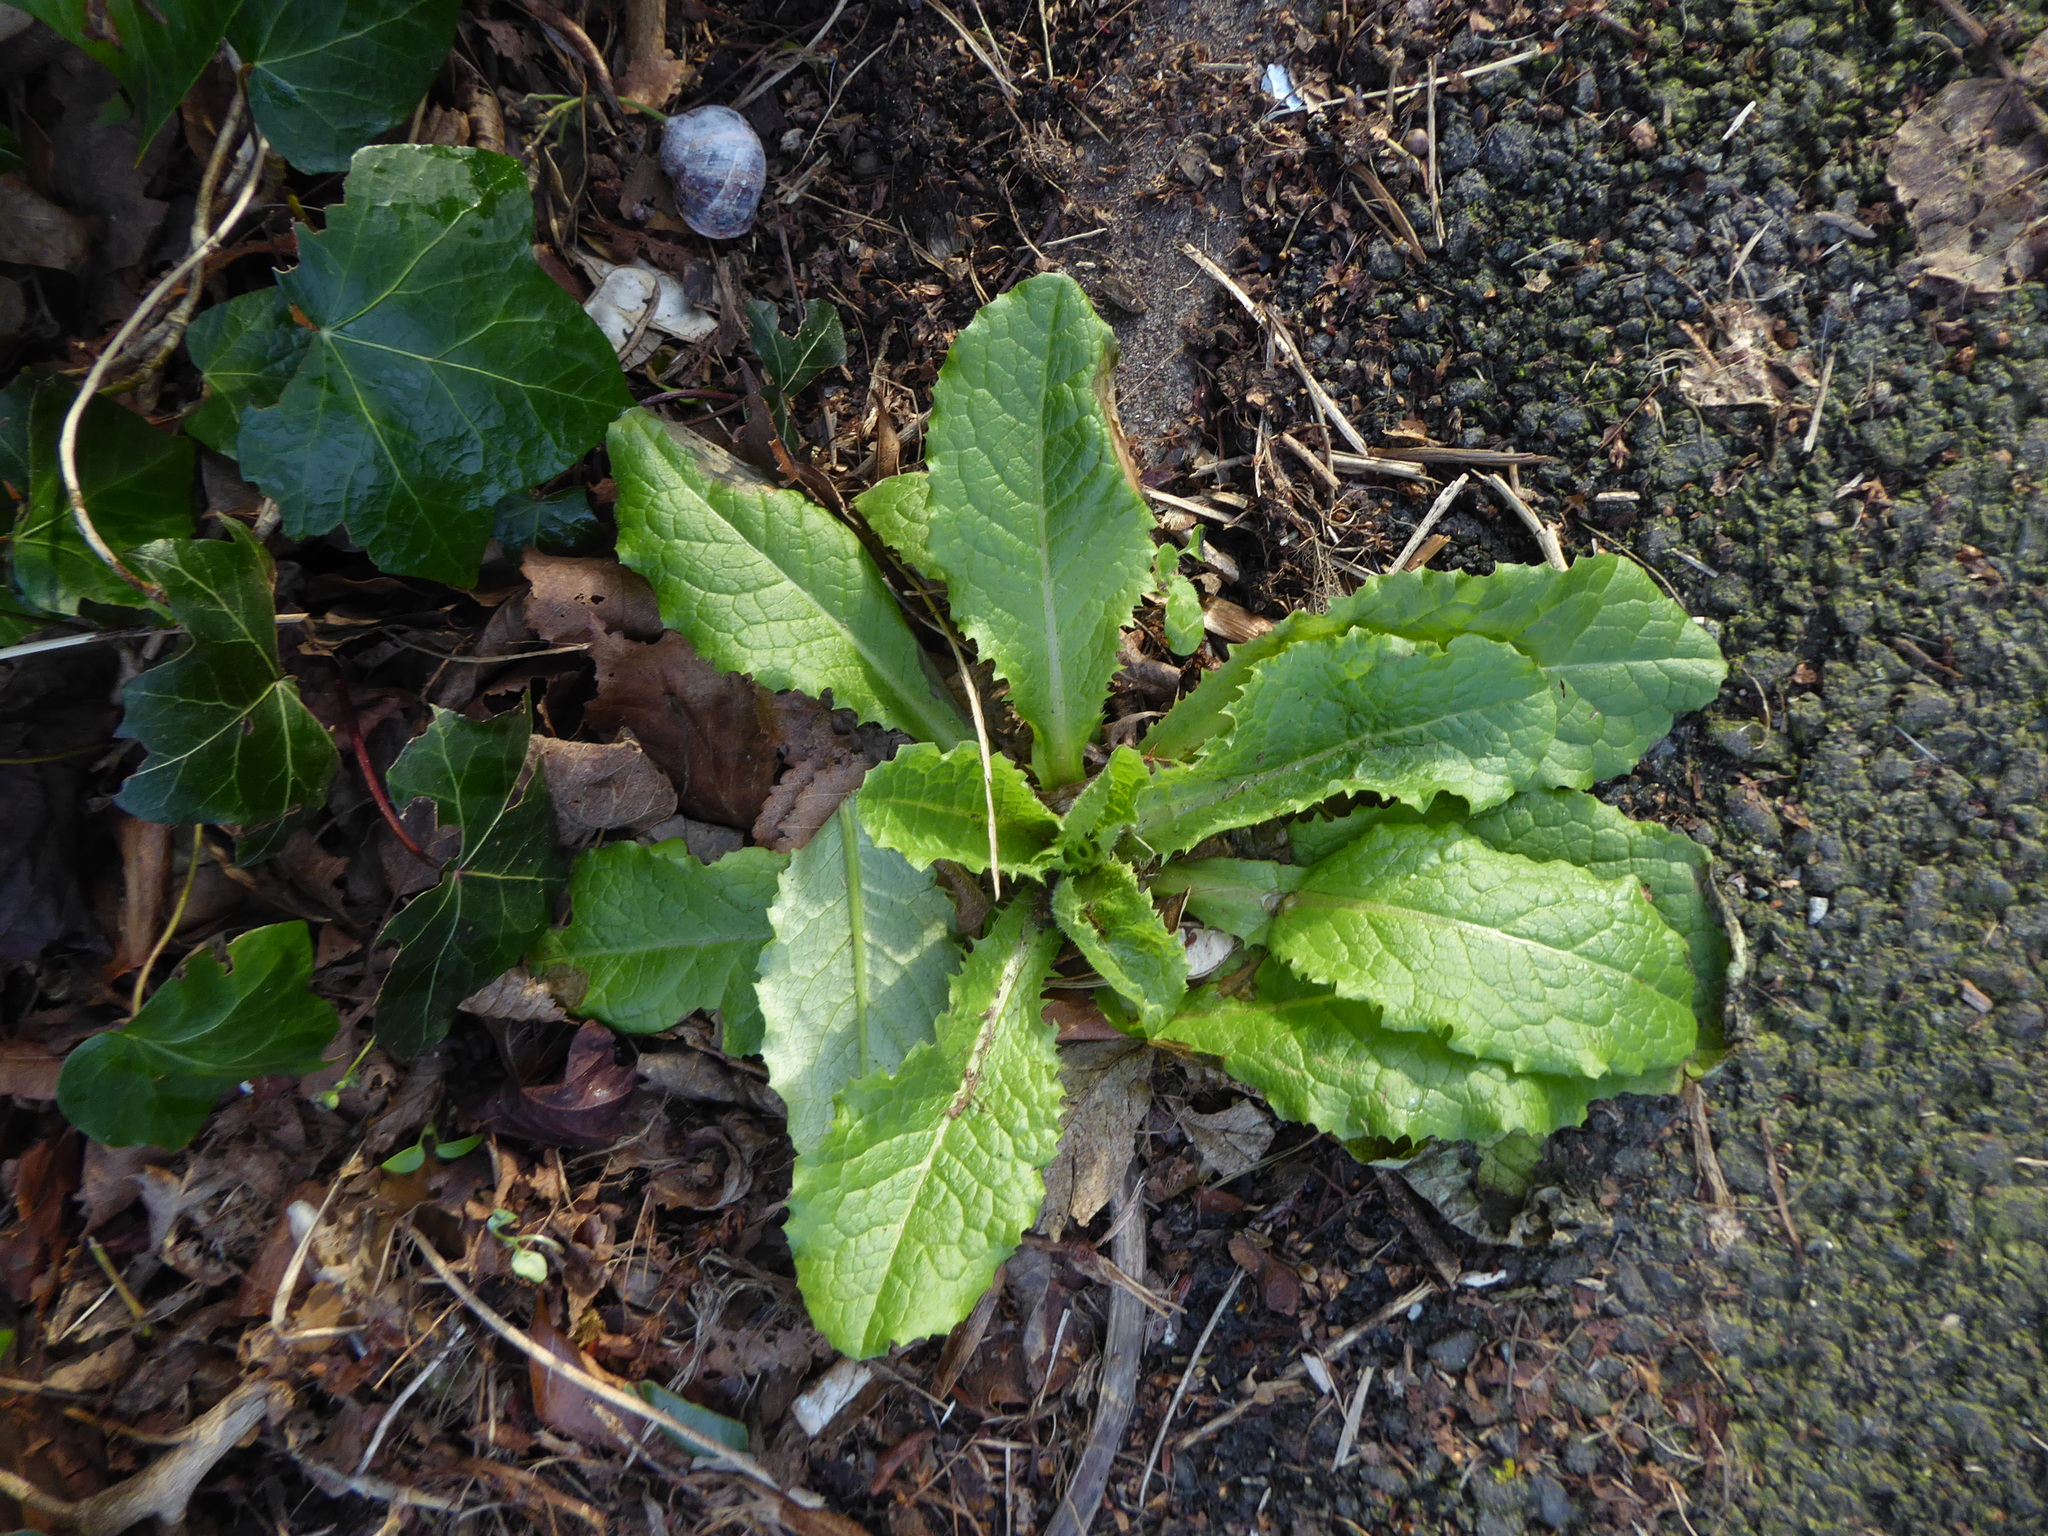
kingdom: Plantae
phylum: Tracheophyta
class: Magnoliopsida
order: Asterales
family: Asteraceae
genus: Lactuca
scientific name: Lactuca virosa
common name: Great lettuce
